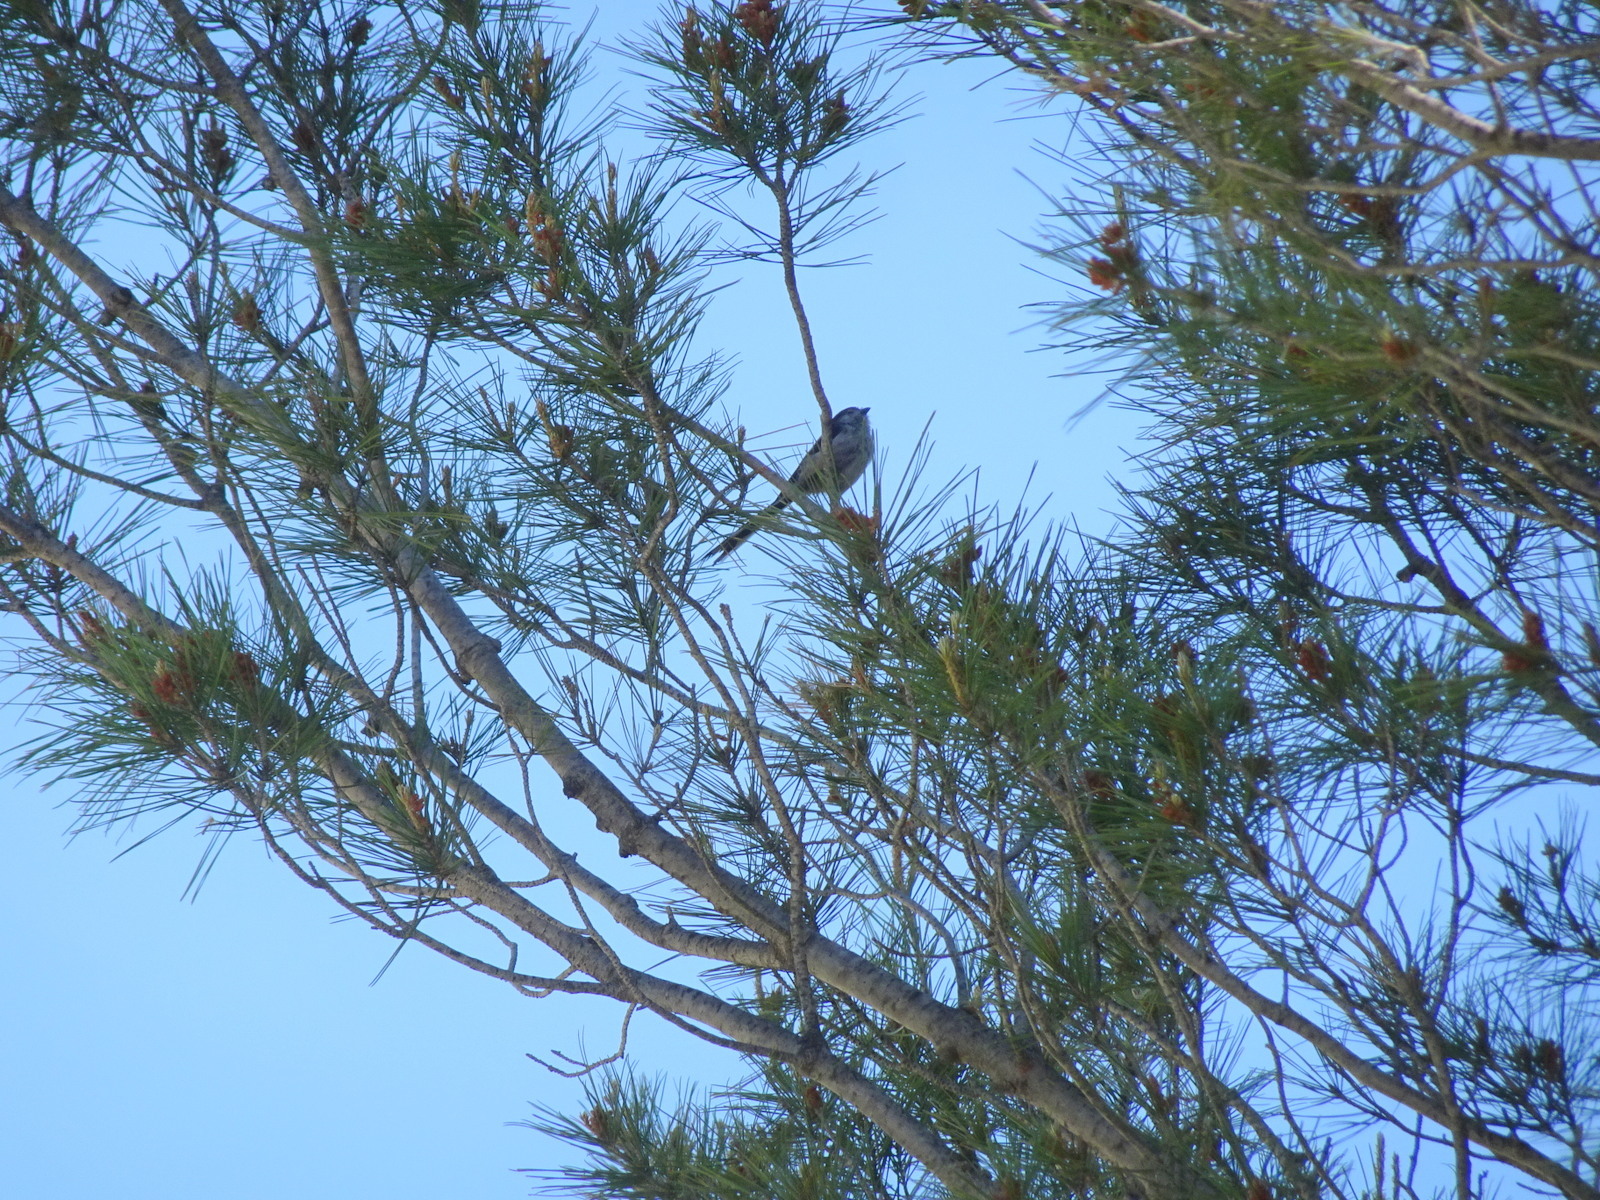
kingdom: Animalia
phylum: Chordata
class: Aves
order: Passeriformes
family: Aegithalidae
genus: Aegithalos
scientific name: Aegithalos caudatus
